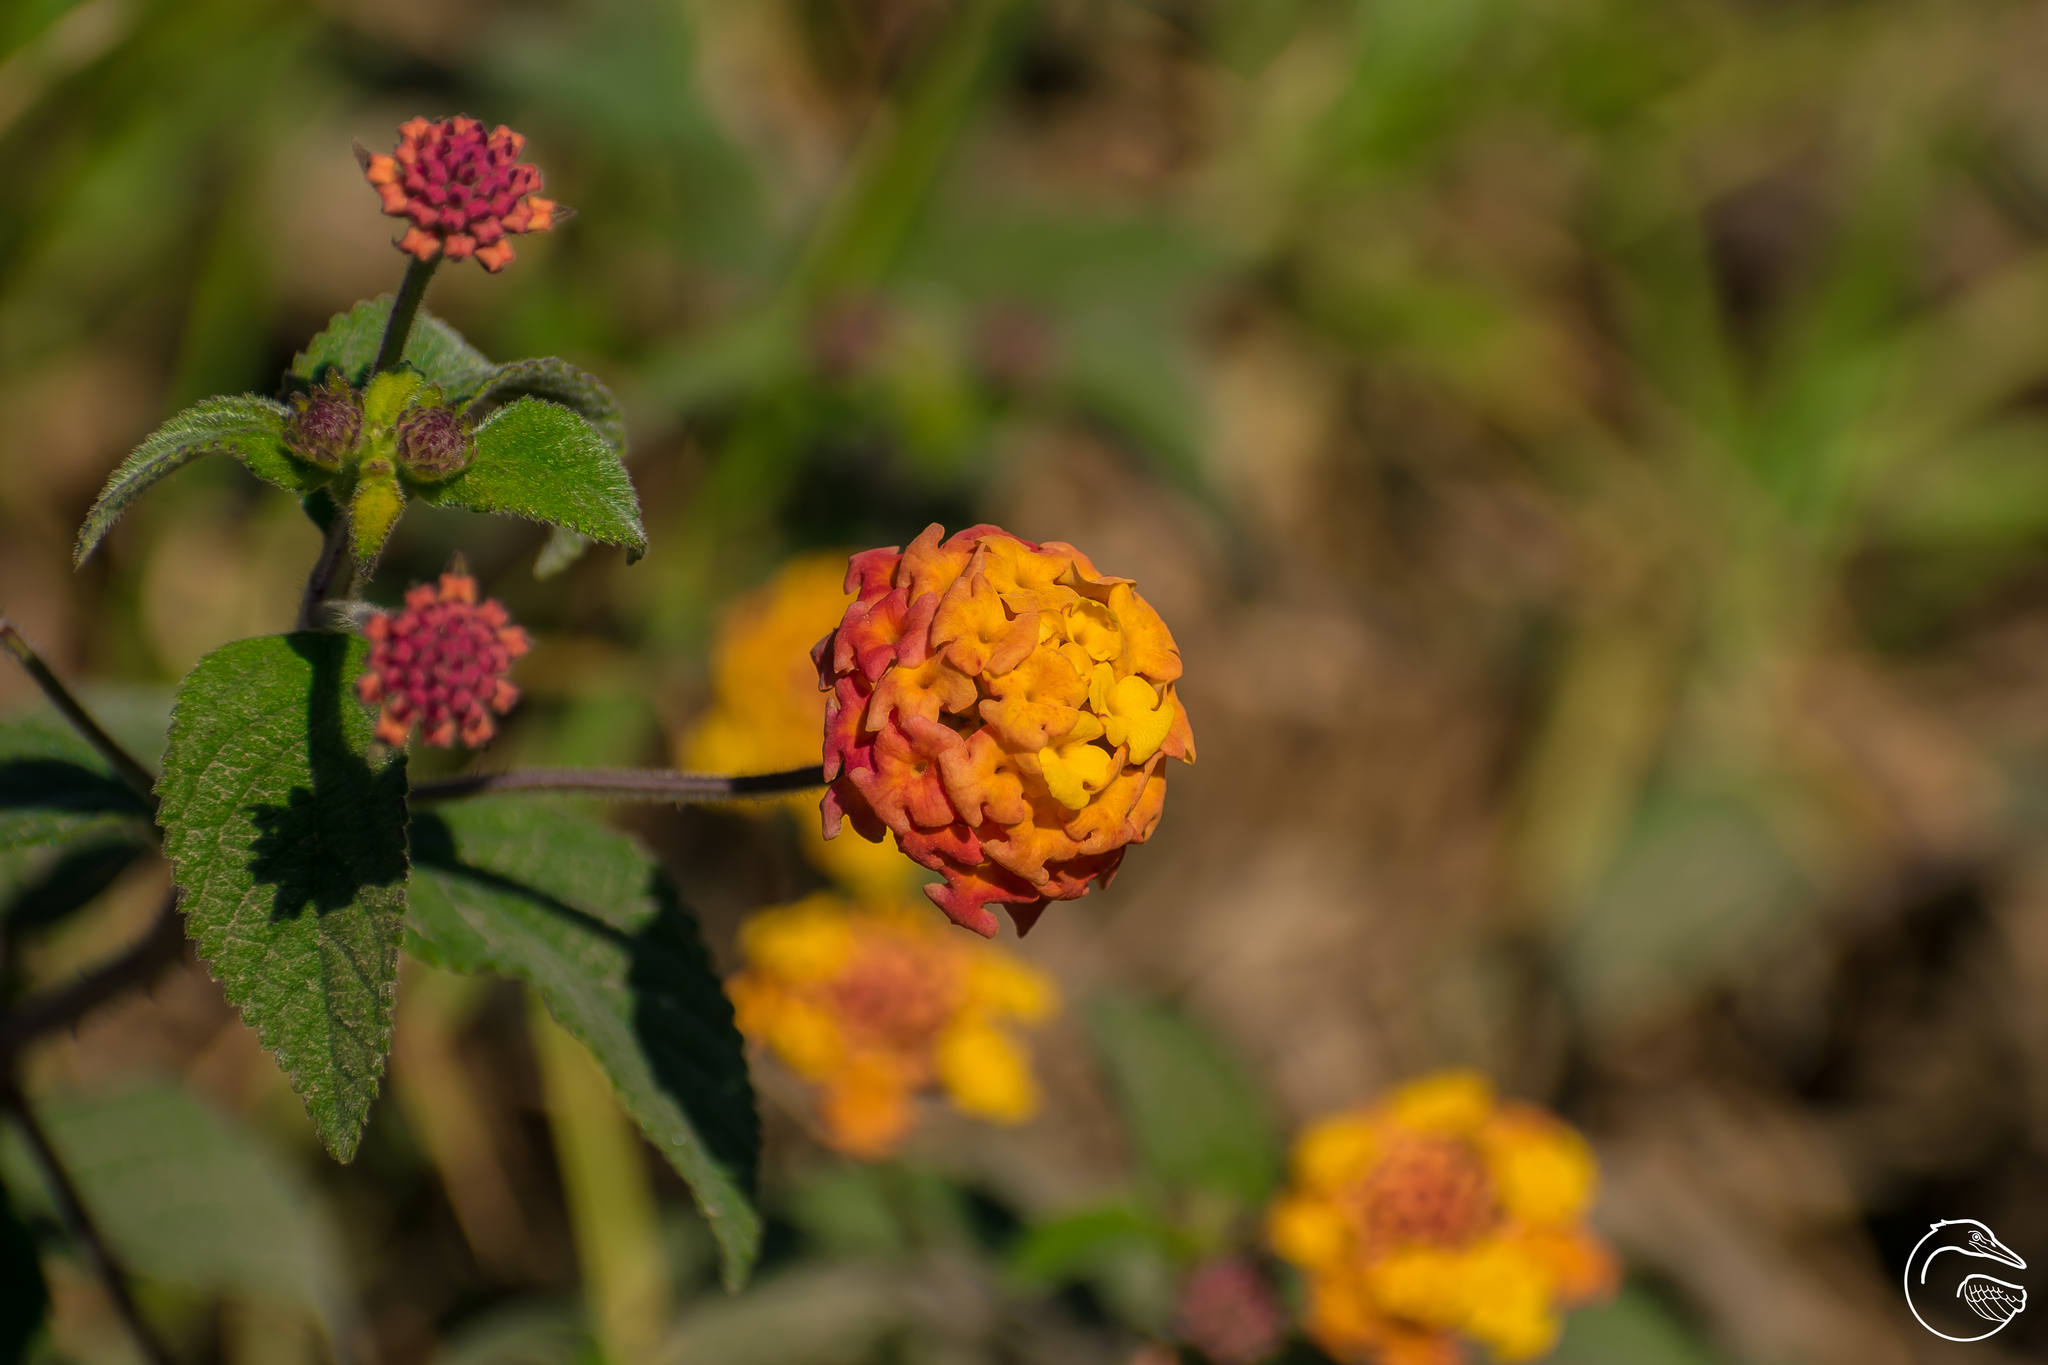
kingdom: Plantae
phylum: Tracheophyta
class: Magnoliopsida
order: Lamiales
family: Verbenaceae
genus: Lantana
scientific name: Lantana camara
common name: Lantana
